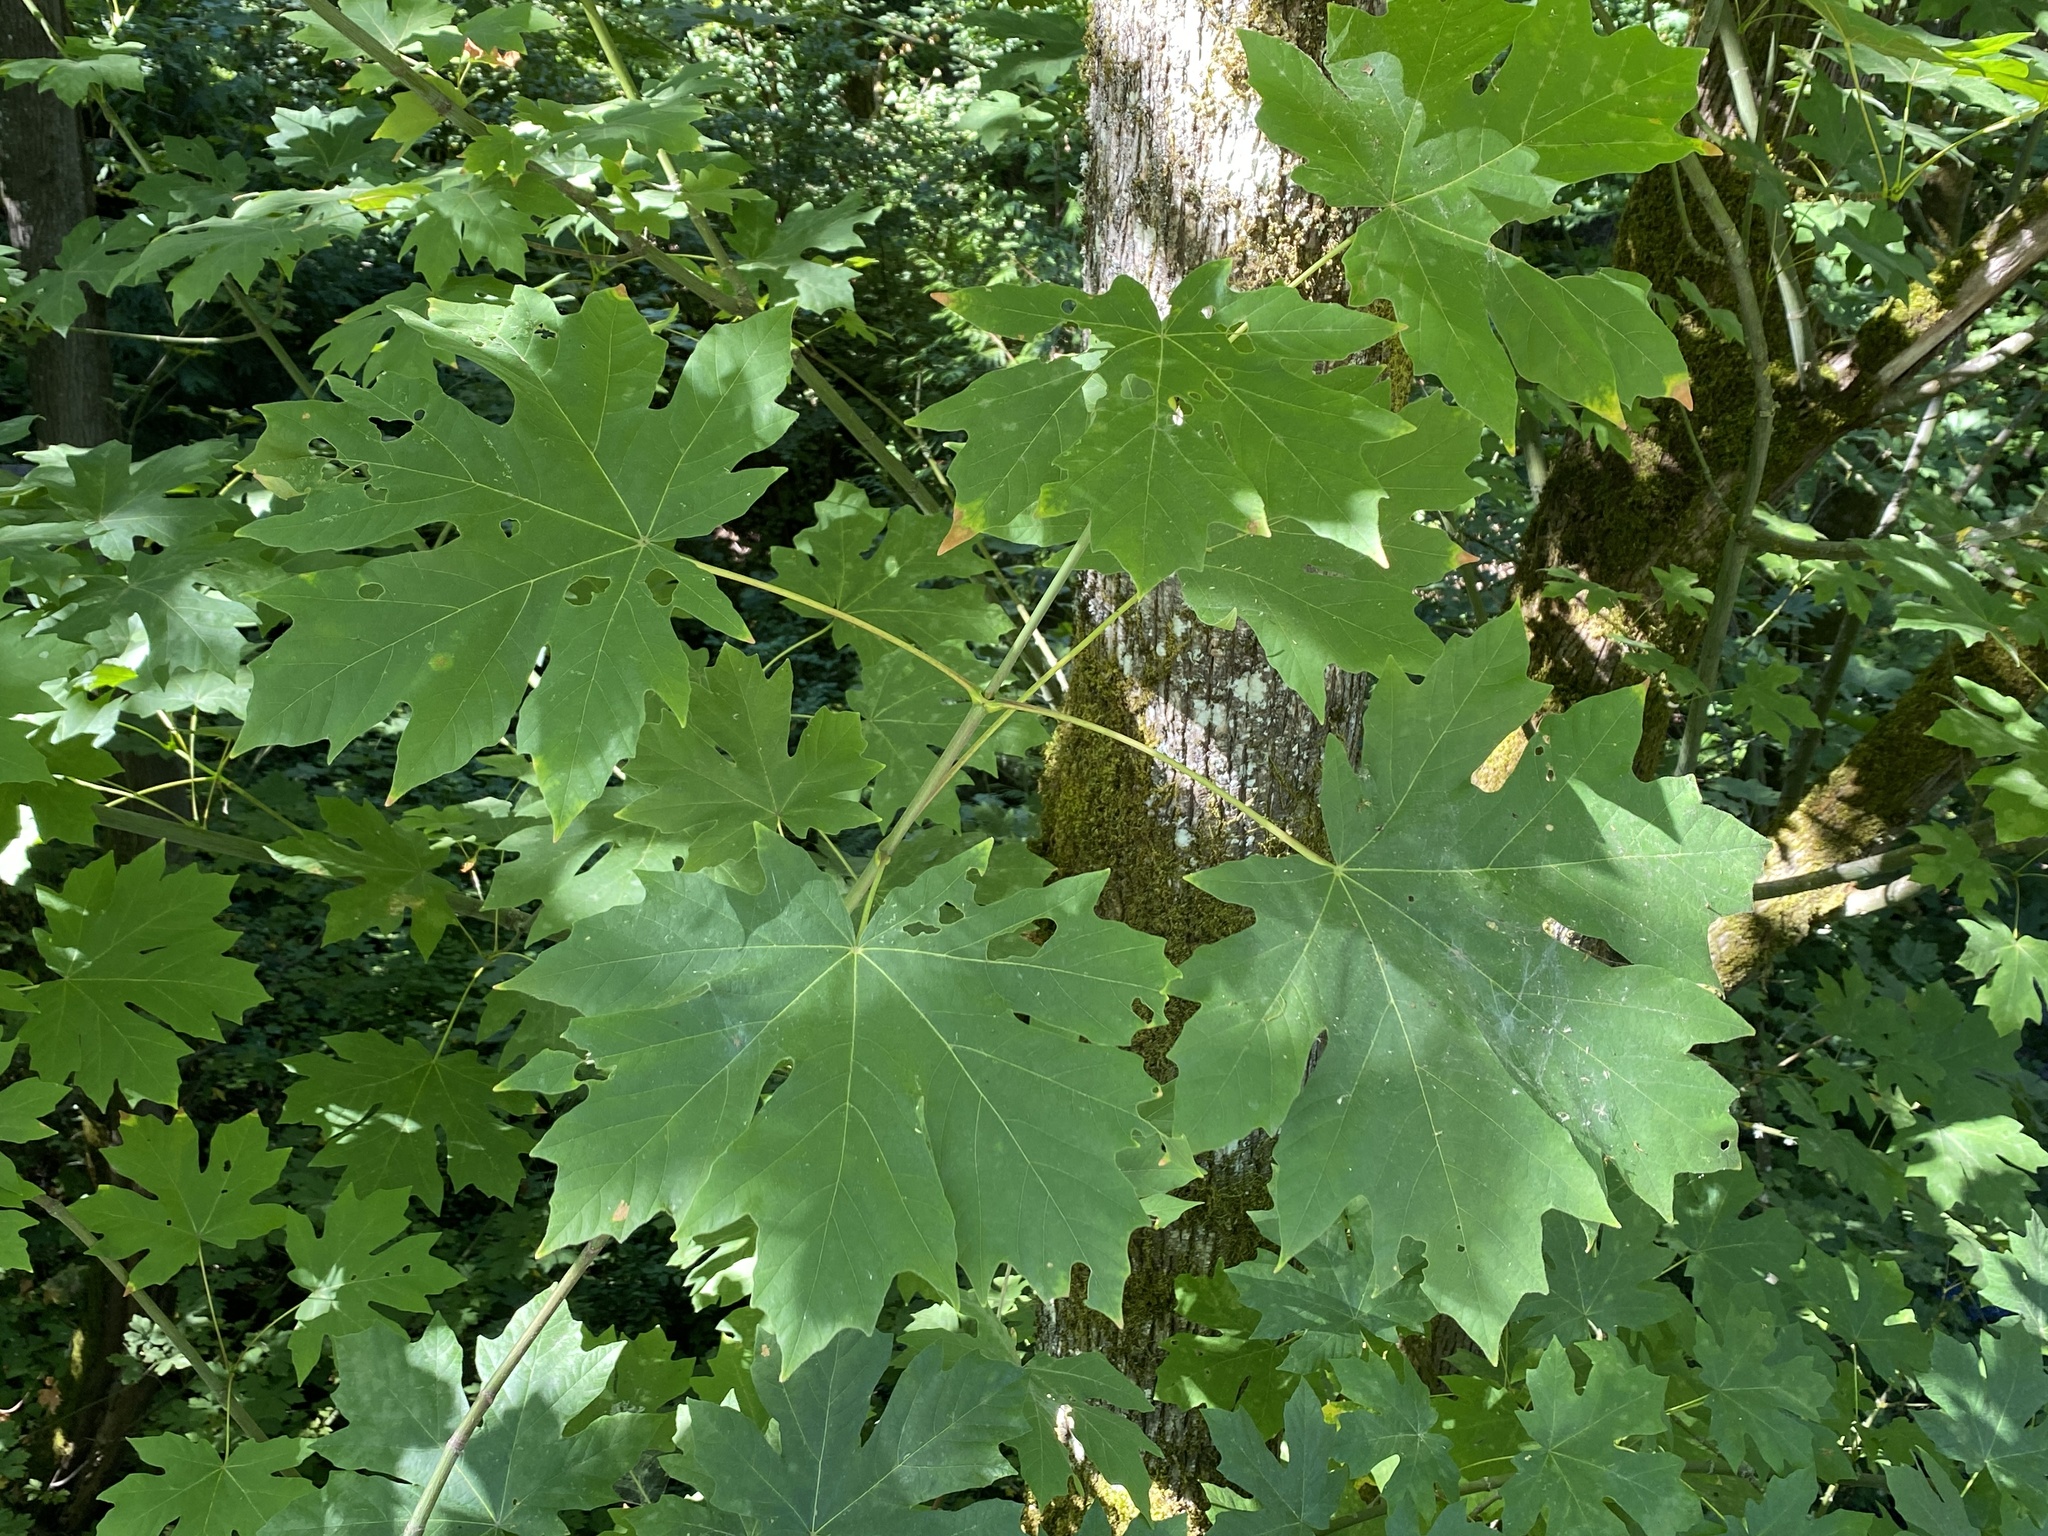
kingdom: Plantae
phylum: Tracheophyta
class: Magnoliopsida
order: Sapindales
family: Sapindaceae
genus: Acer
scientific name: Acer macrophyllum
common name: Oregon maple
